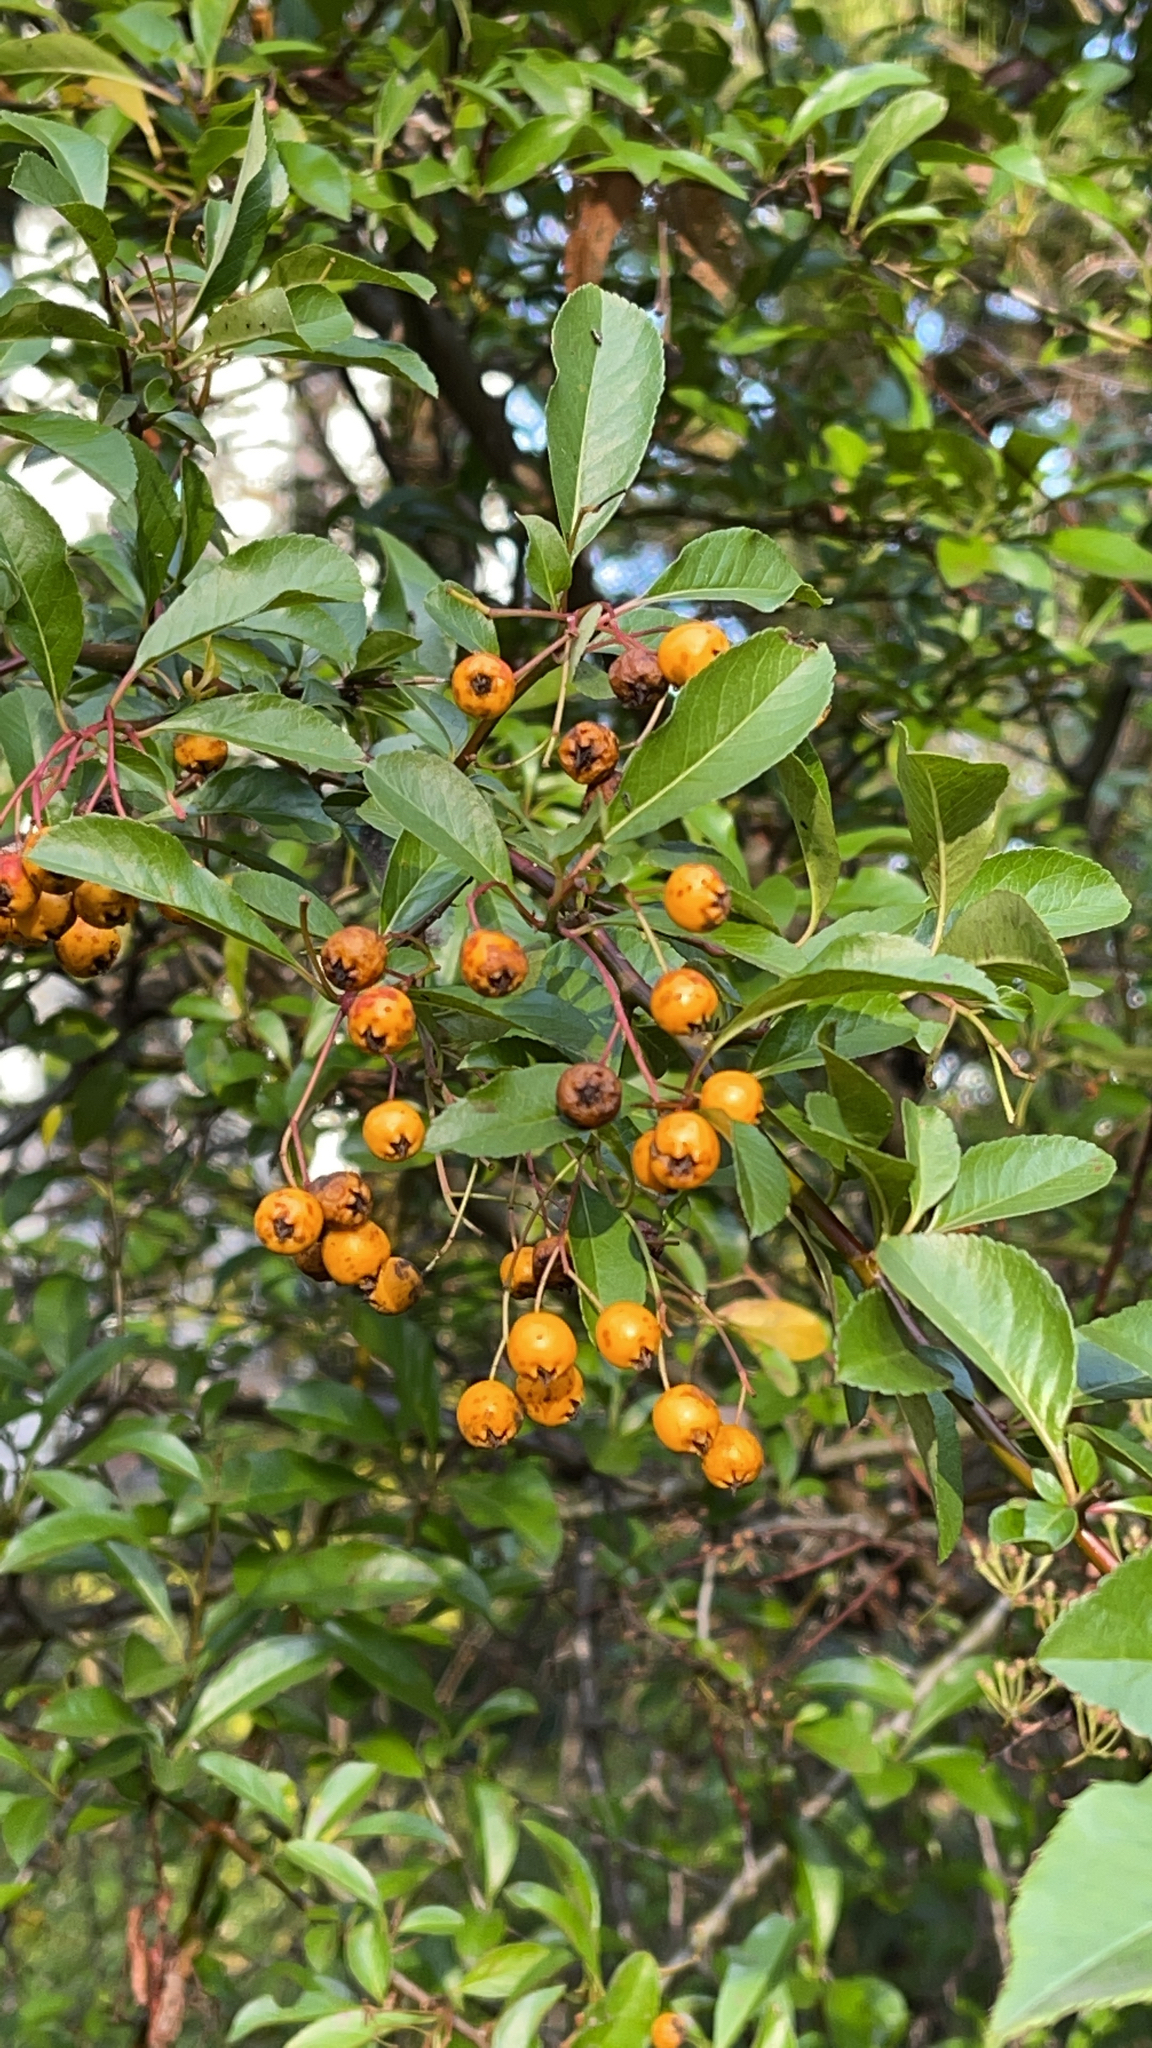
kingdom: Plantae
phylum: Tracheophyta
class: Magnoliopsida
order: Rosales
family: Rosaceae
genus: Pyracantha
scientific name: Pyracantha coccinea
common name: Firethorn
